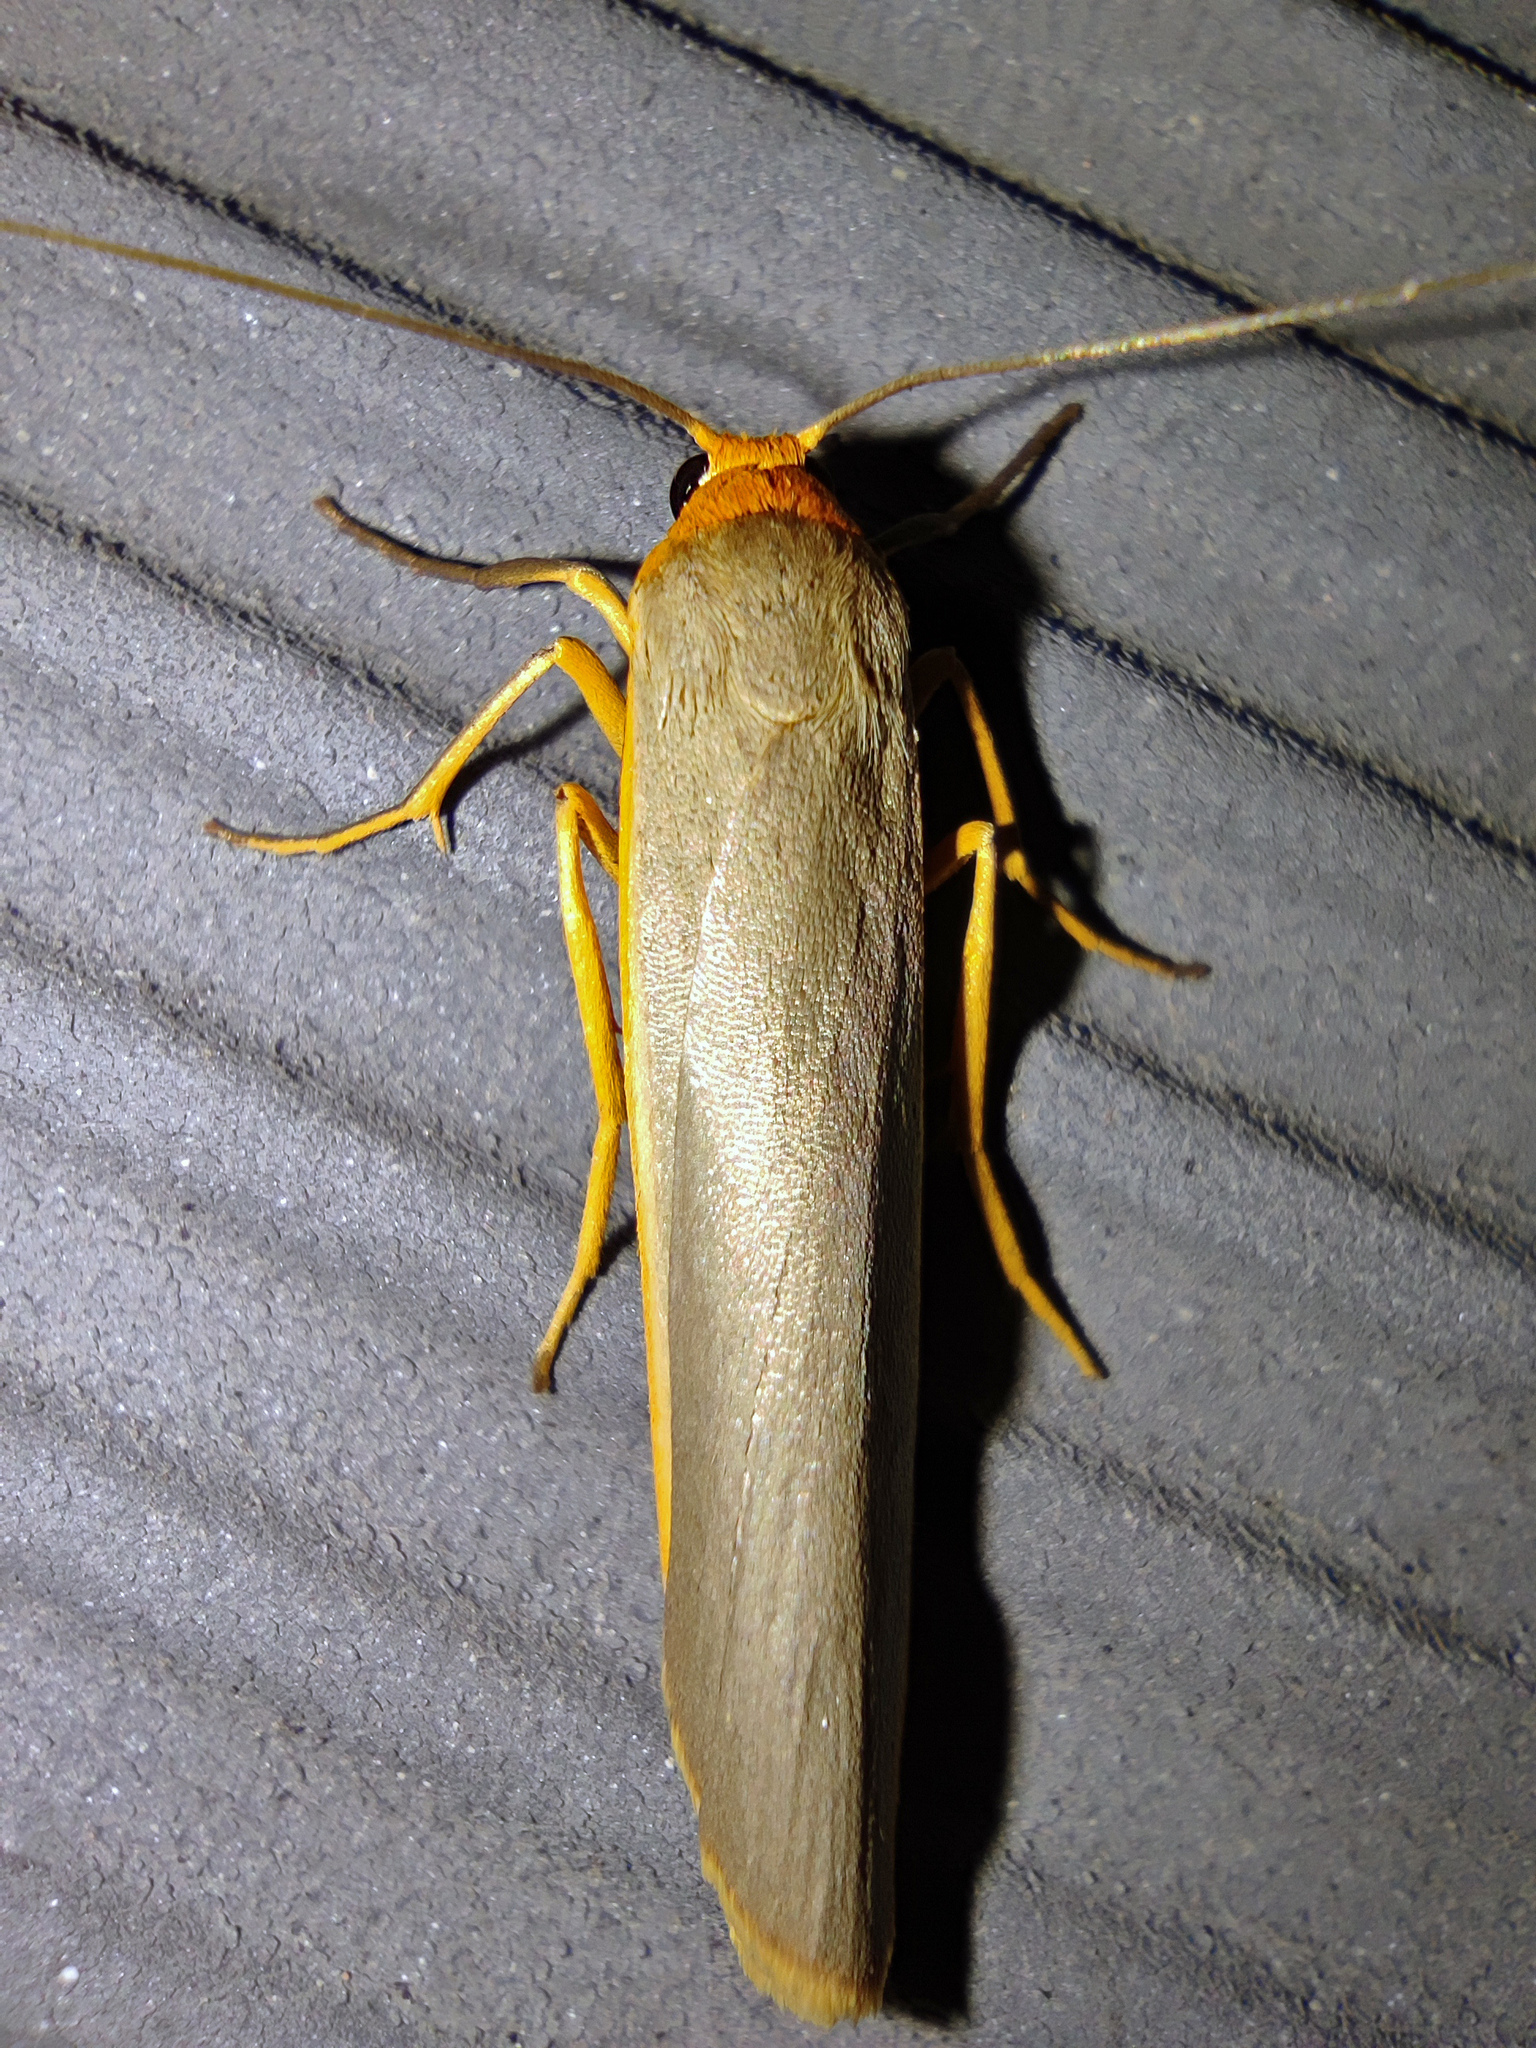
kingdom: Animalia
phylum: Arthropoda
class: Insecta
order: Lepidoptera
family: Erebidae
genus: Manulea
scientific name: Manulea complana
